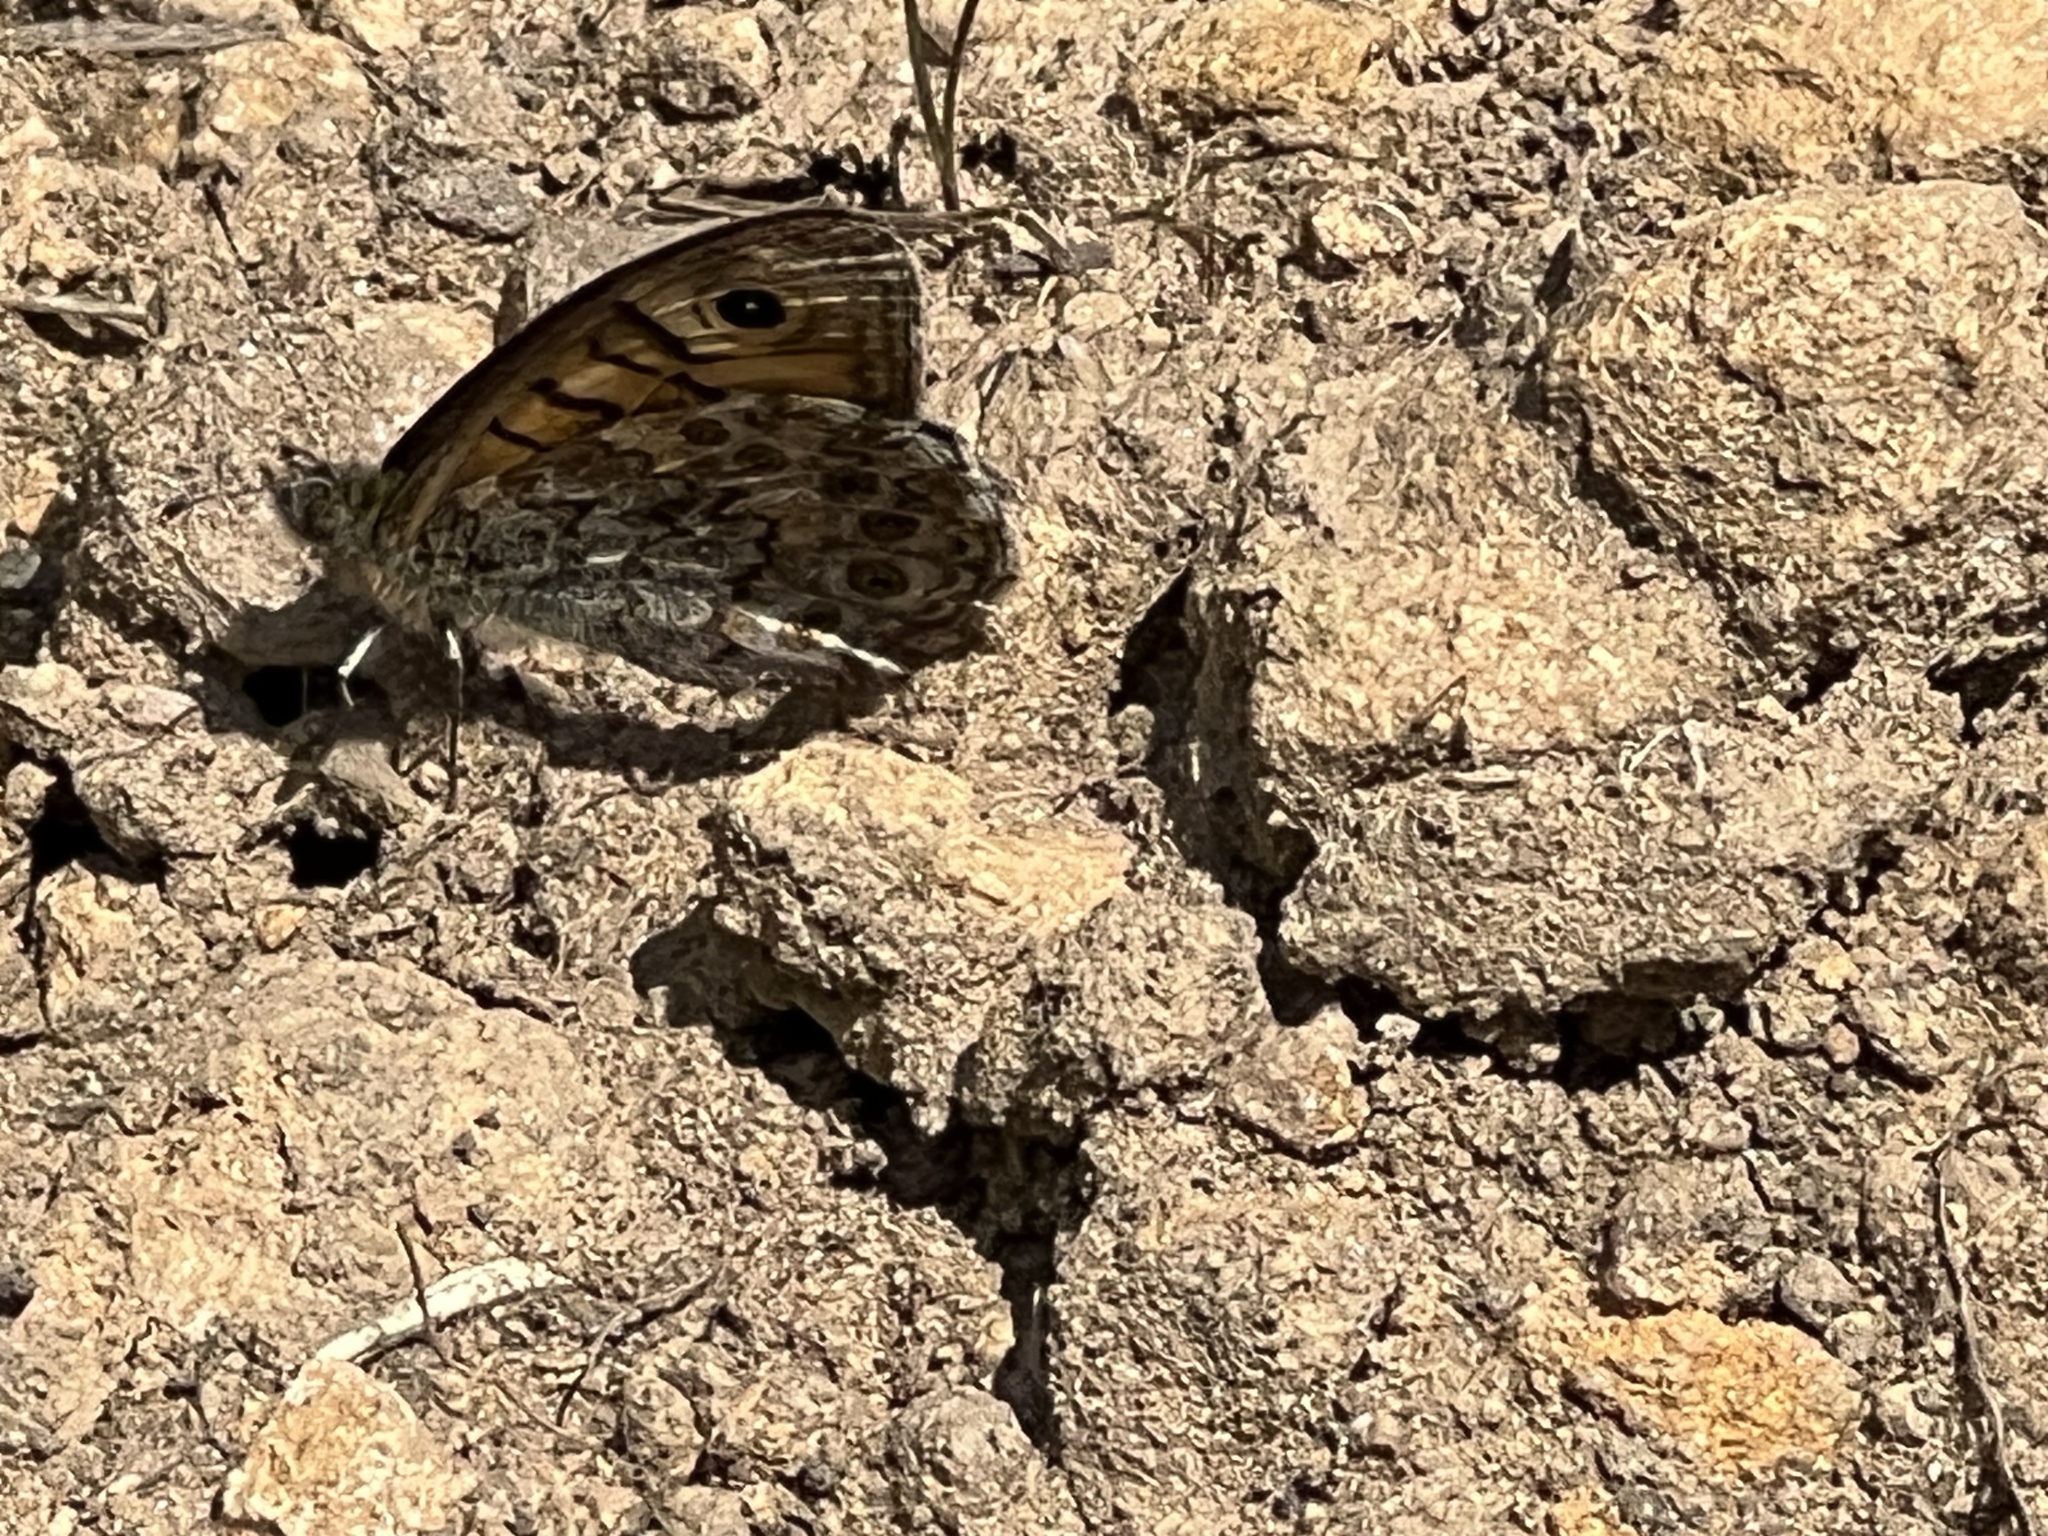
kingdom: Animalia
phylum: Arthropoda
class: Insecta
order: Lepidoptera
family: Nymphalidae
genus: Pararge
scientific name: Pararge Lasiommata megera
